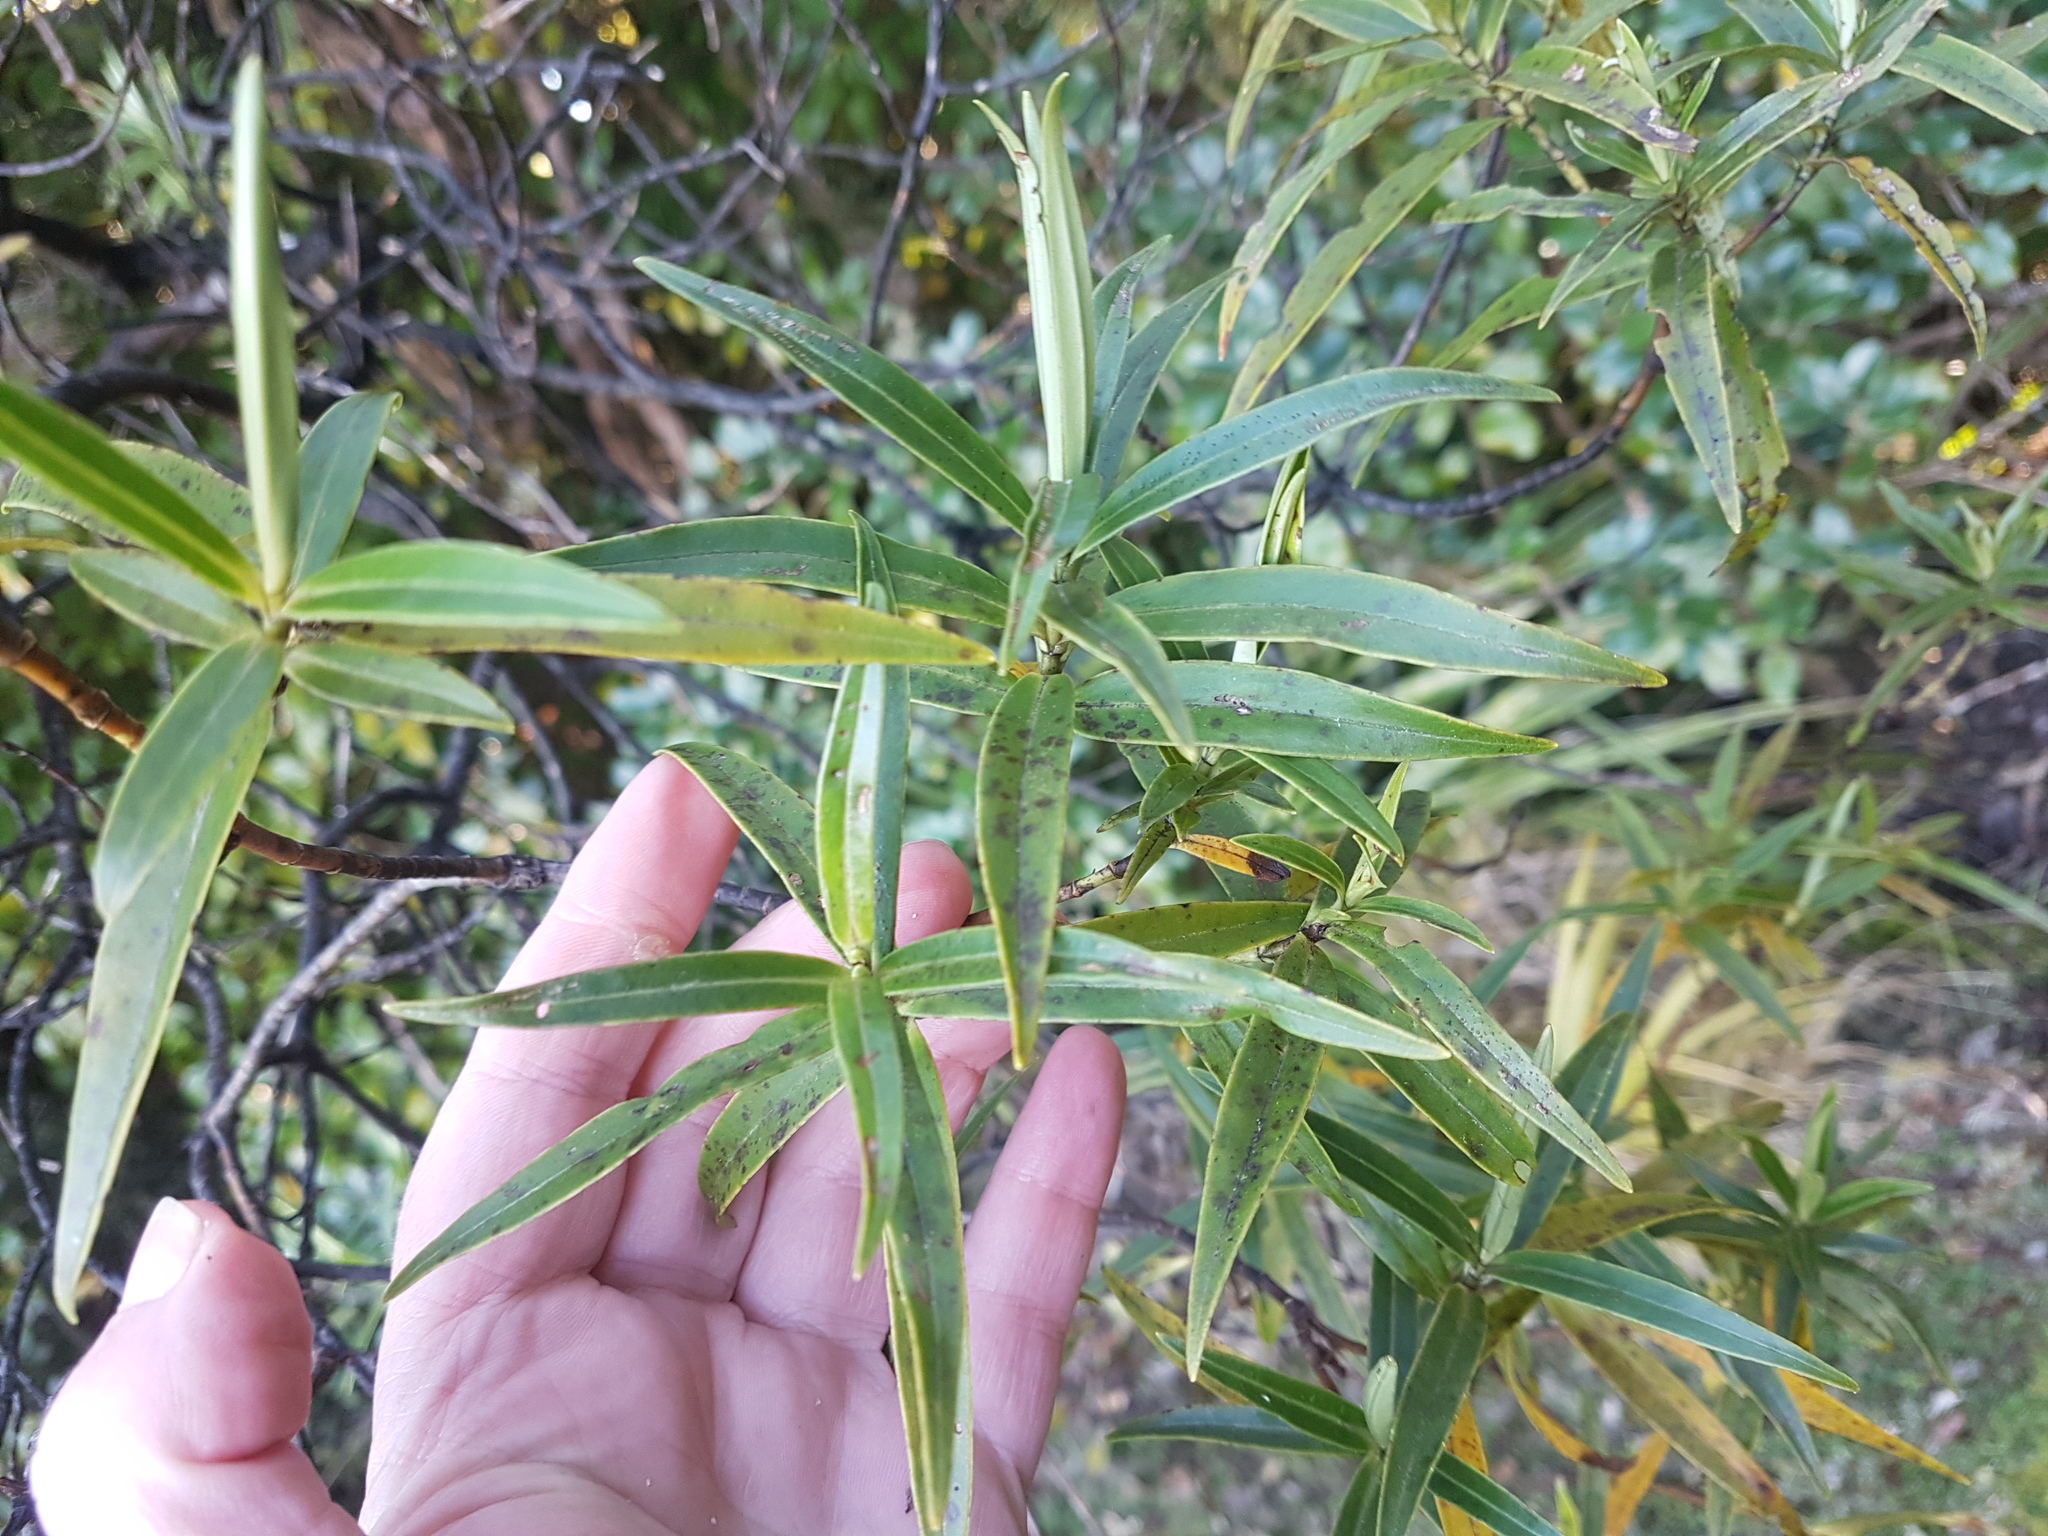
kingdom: Plantae
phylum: Tracheophyta
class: Magnoliopsida
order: Lamiales
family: Plantaginaceae
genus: Veronica
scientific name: Veronica stricta
